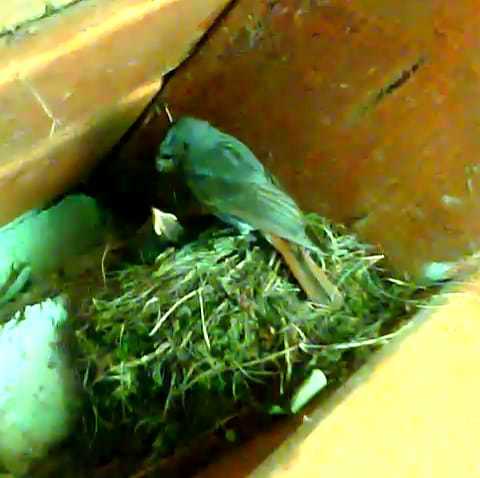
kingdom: Animalia
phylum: Chordata
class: Aves
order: Passeriformes
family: Muscicapidae
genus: Phoenicurus
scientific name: Phoenicurus ochruros
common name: Black redstart
